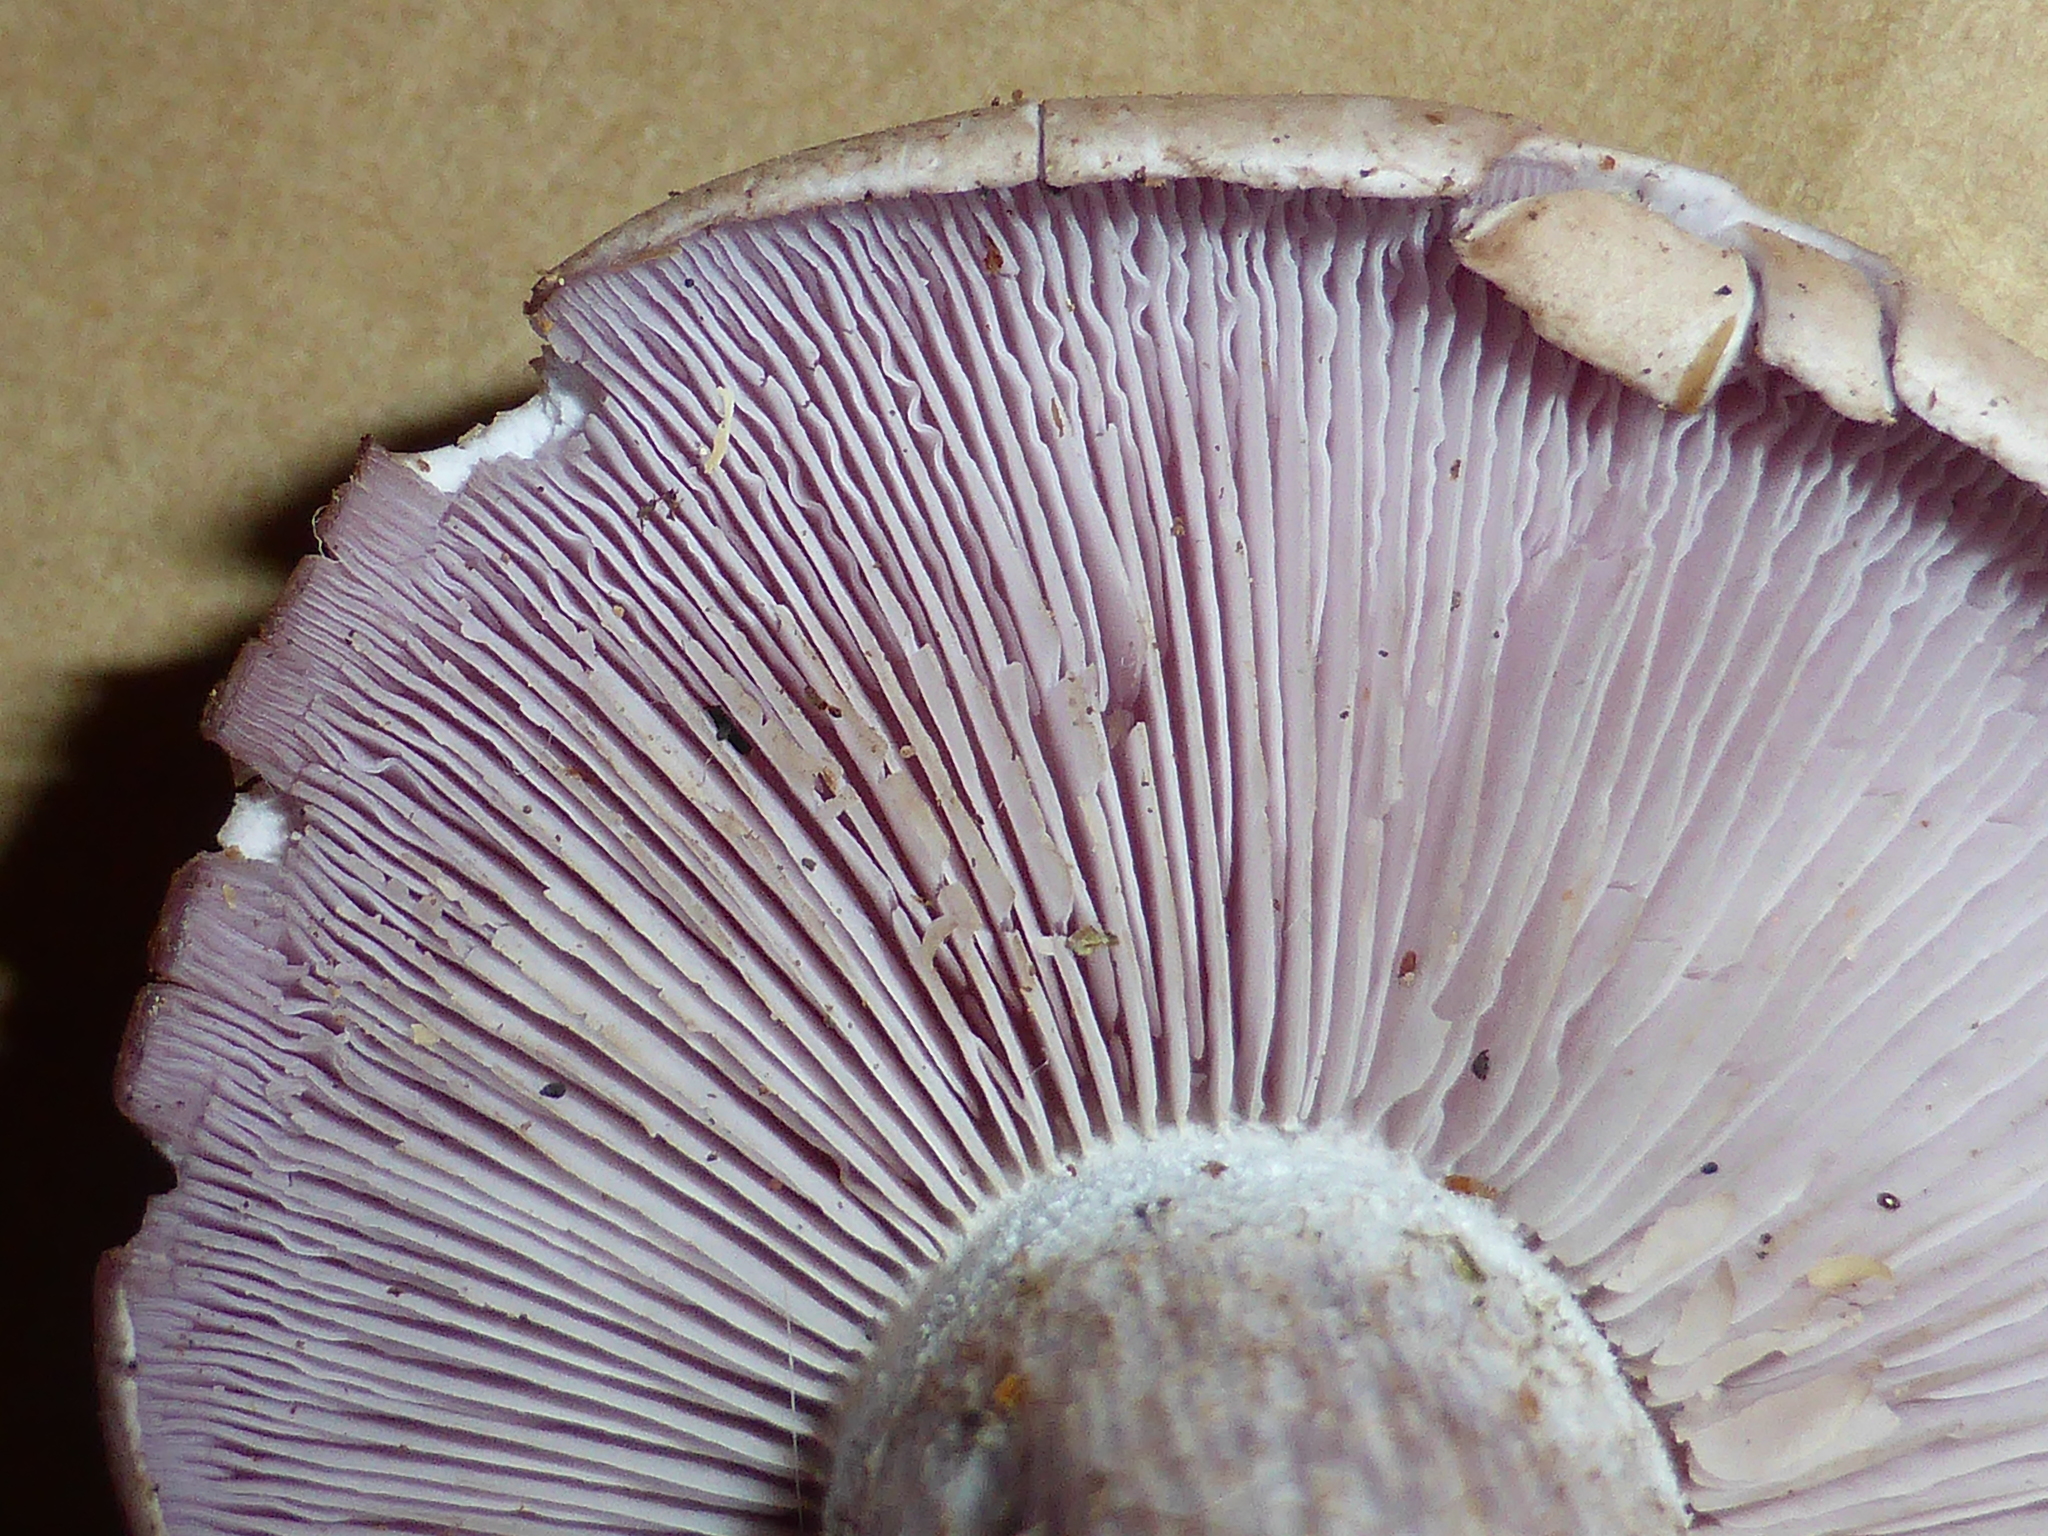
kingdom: Fungi
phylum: Basidiomycota
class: Agaricomycetes
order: Agaricales
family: Tricholomataceae
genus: Collybia
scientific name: Collybia
